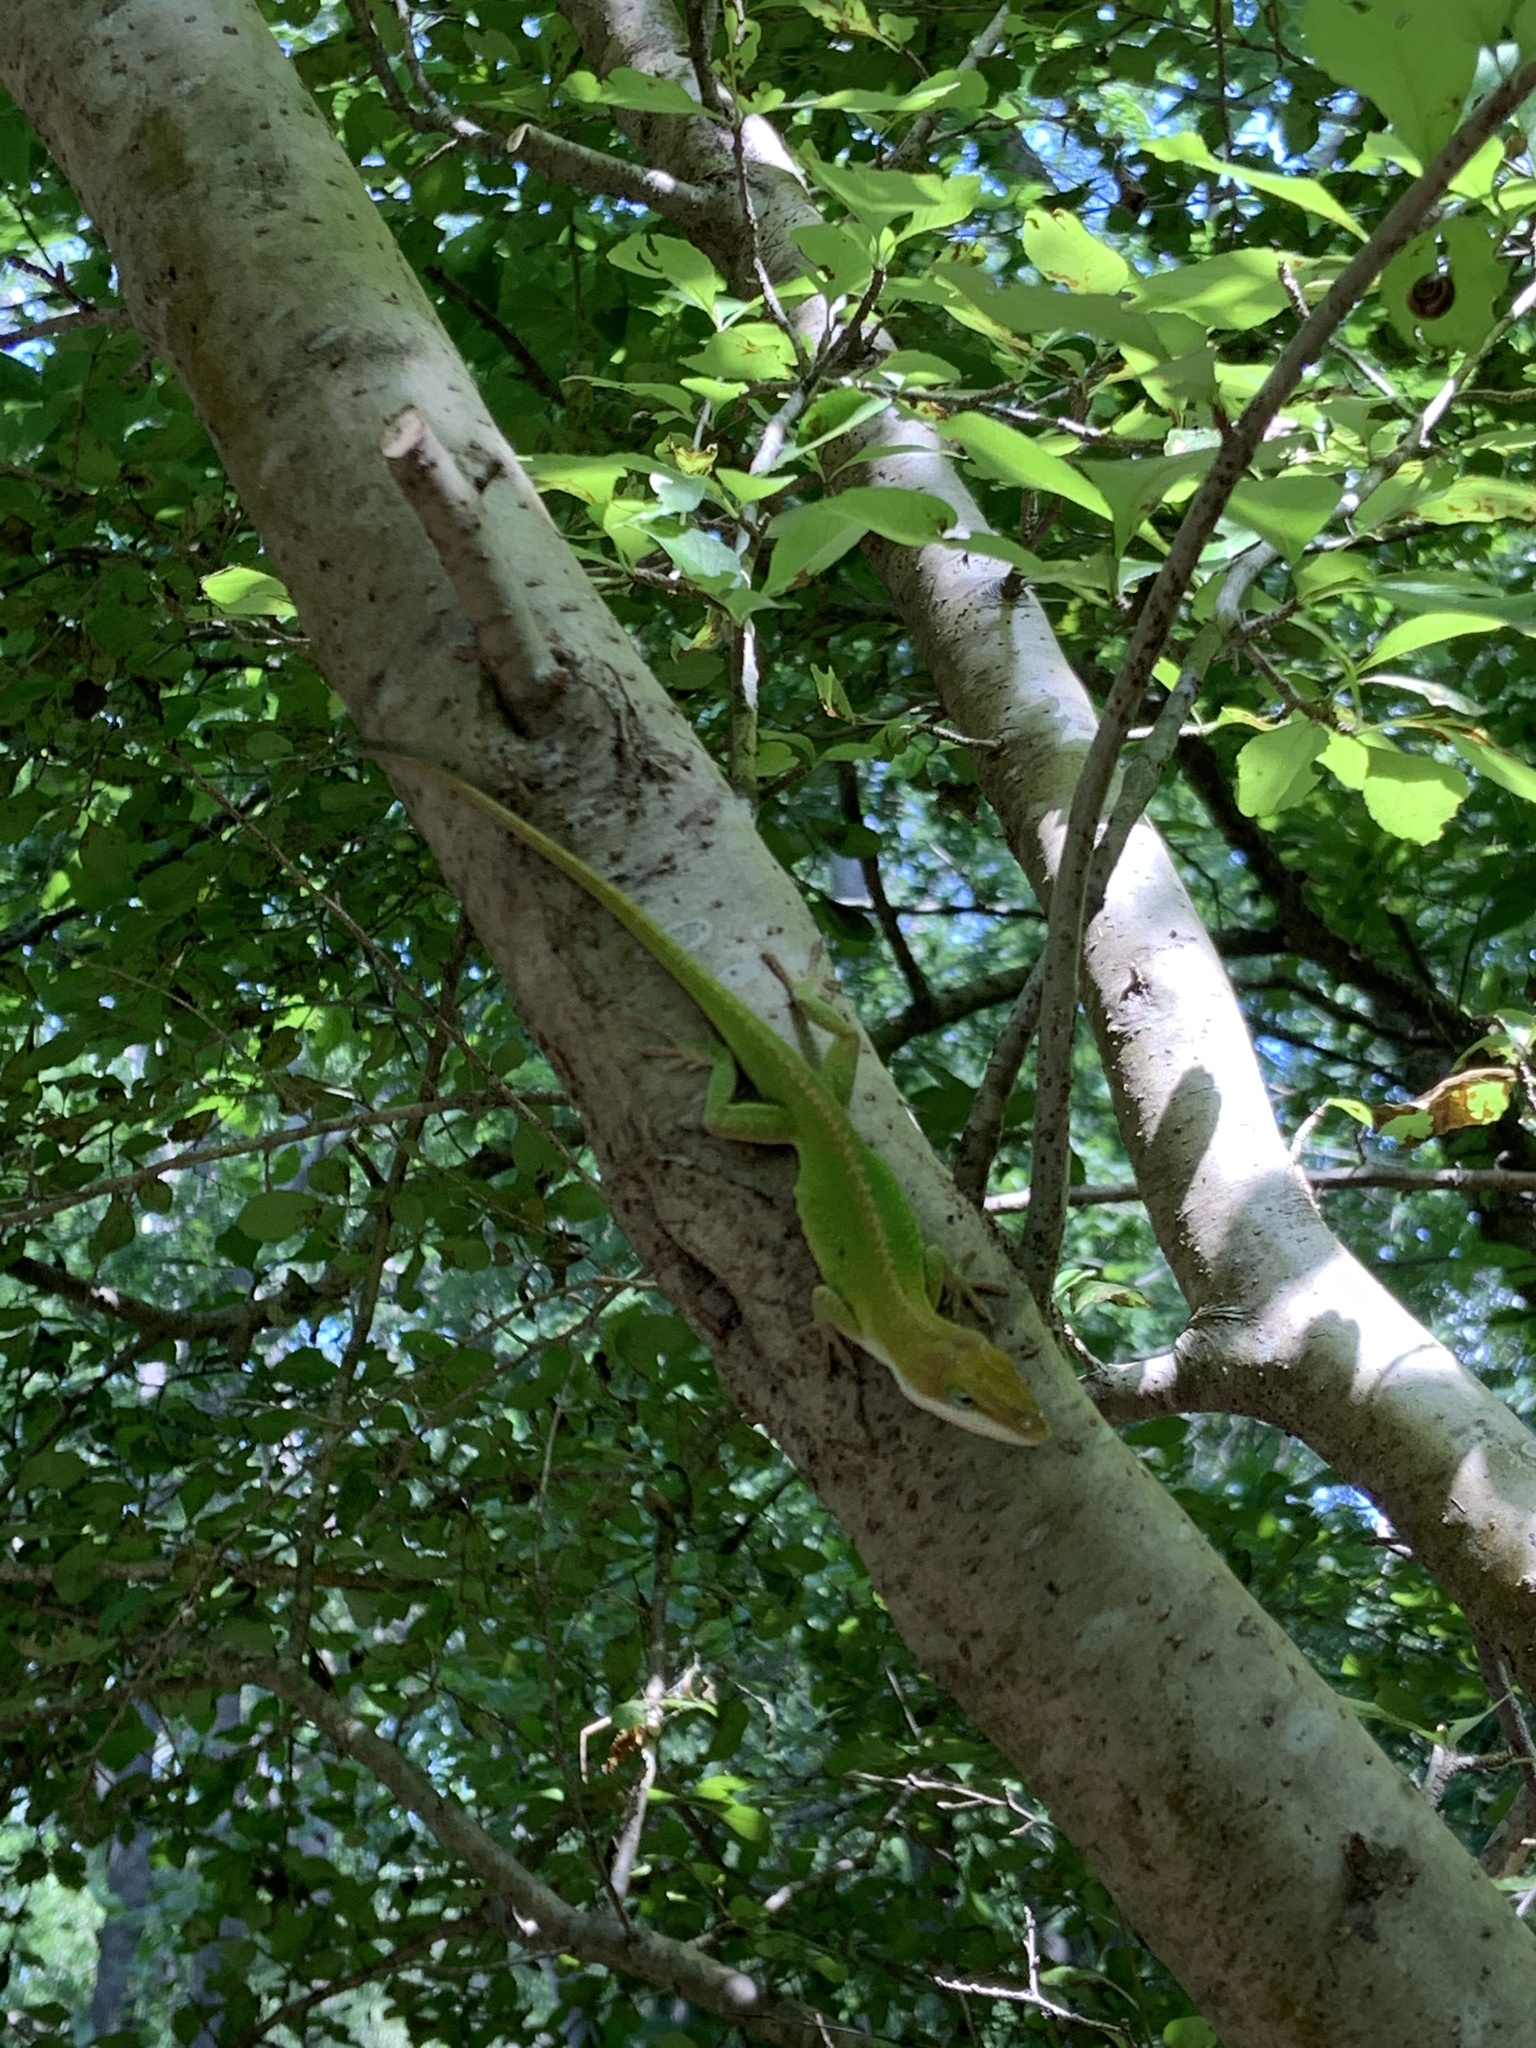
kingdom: Animalia
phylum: Chordata
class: Squamata
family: Dactyloidae
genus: Anolis
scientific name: Anolis carolinensis
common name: Green anole
